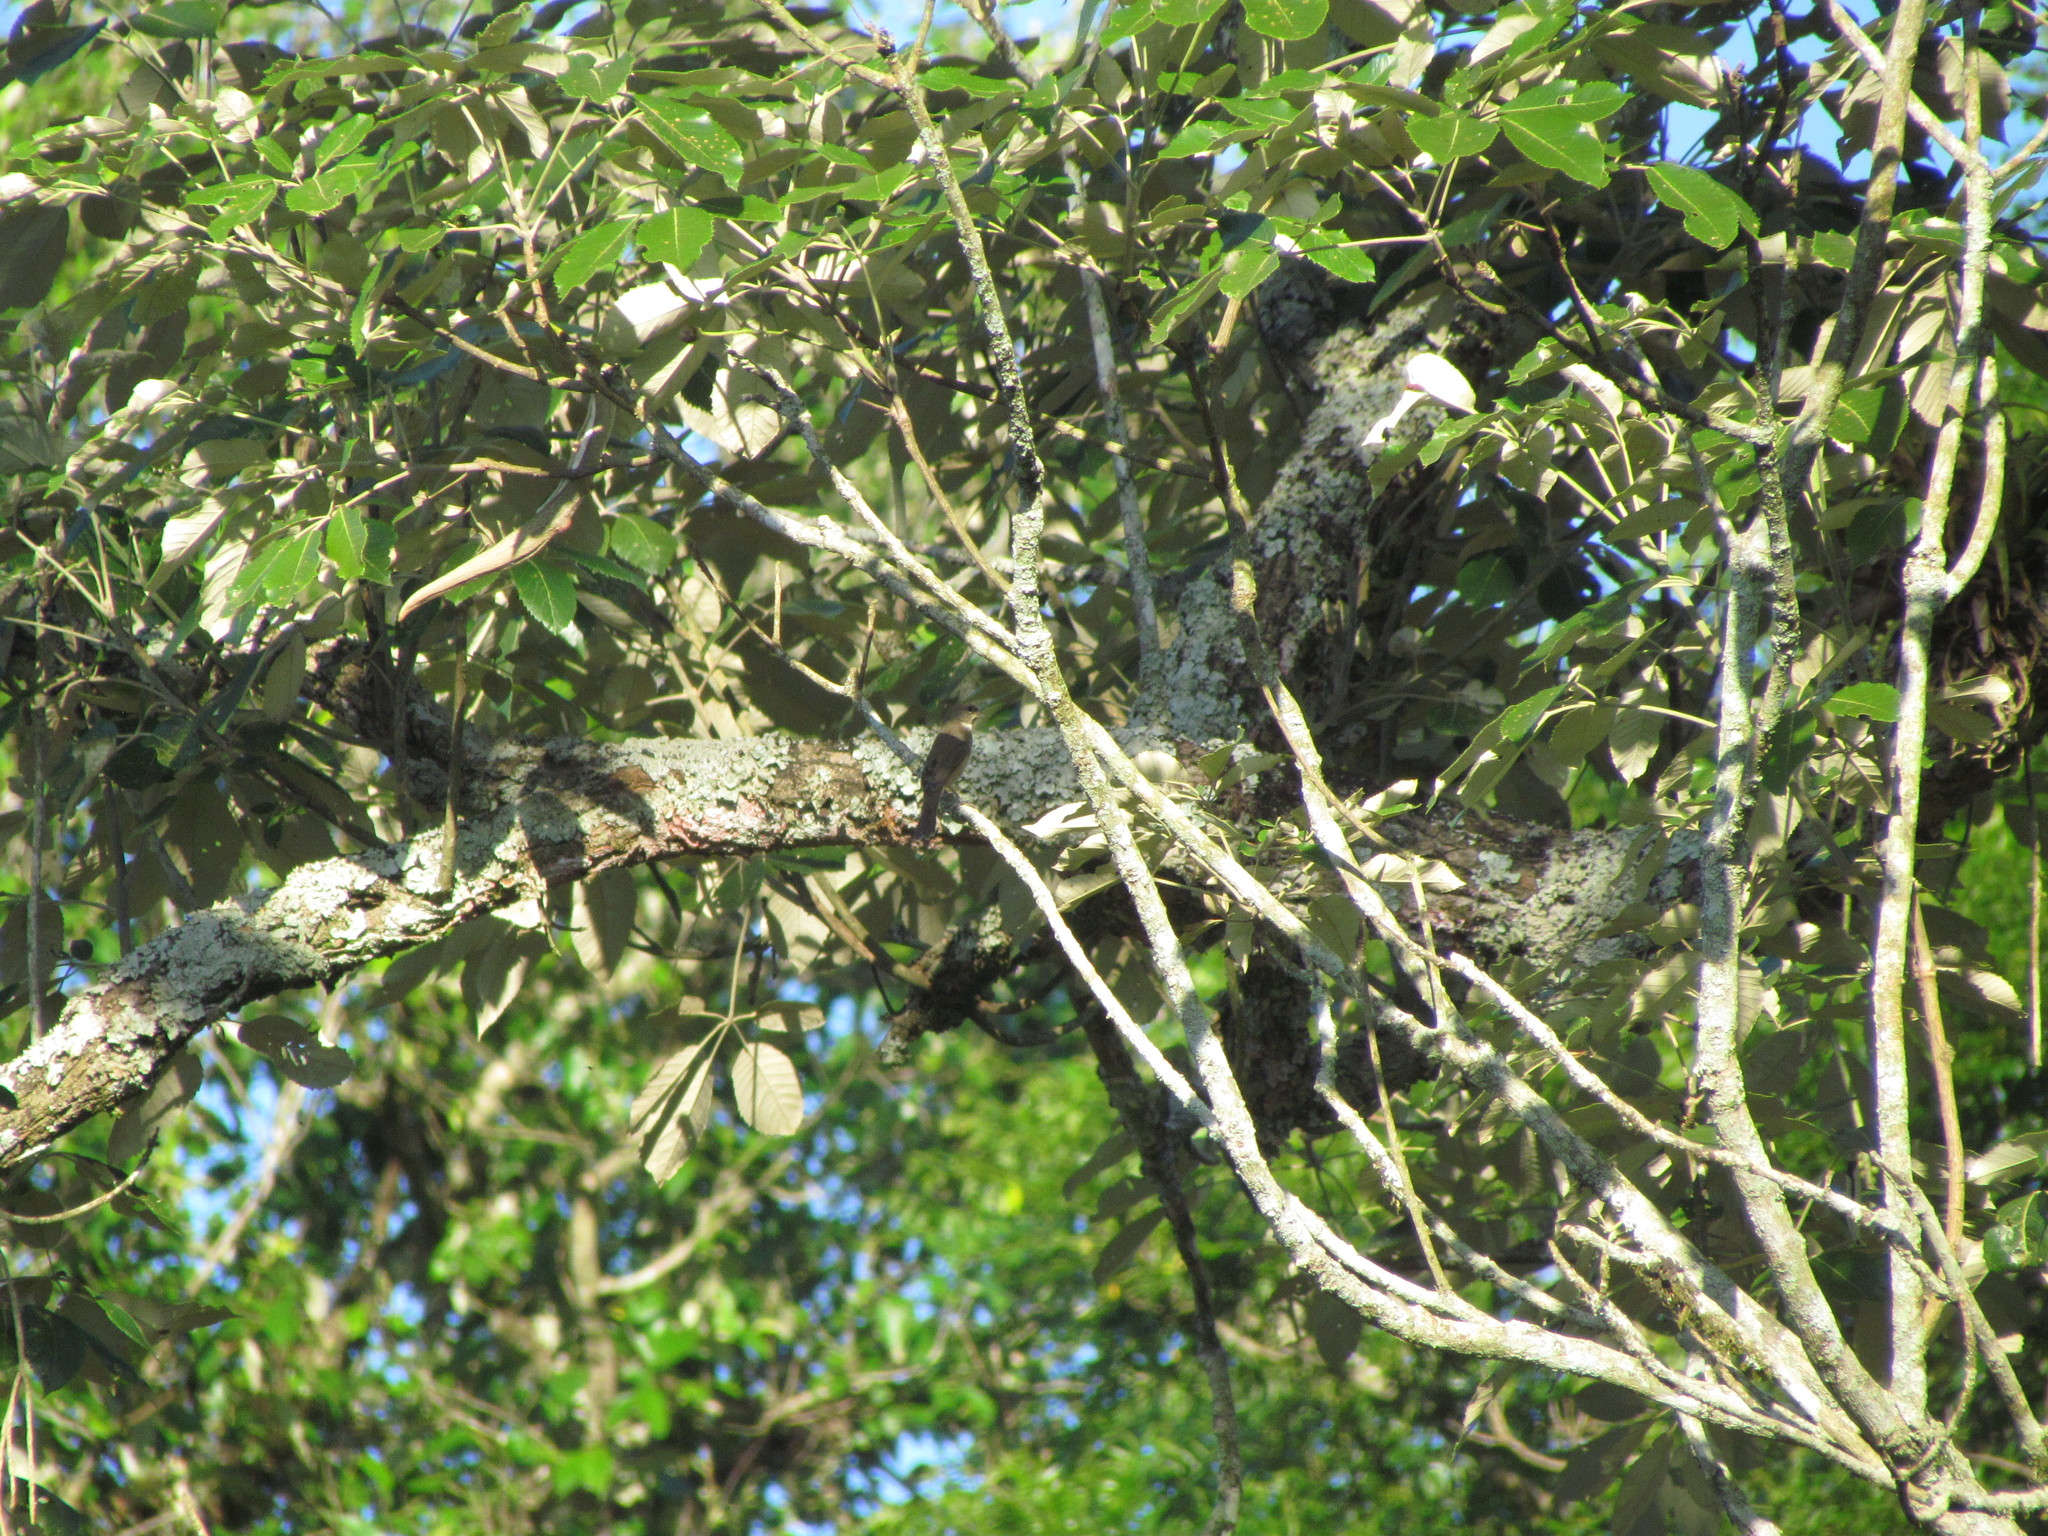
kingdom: Animalia
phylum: Chordata
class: Aves
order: Passeriformes
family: Thraupidae
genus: Sporophila
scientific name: Sporophila caerulescens
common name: Double-collared seedeater
